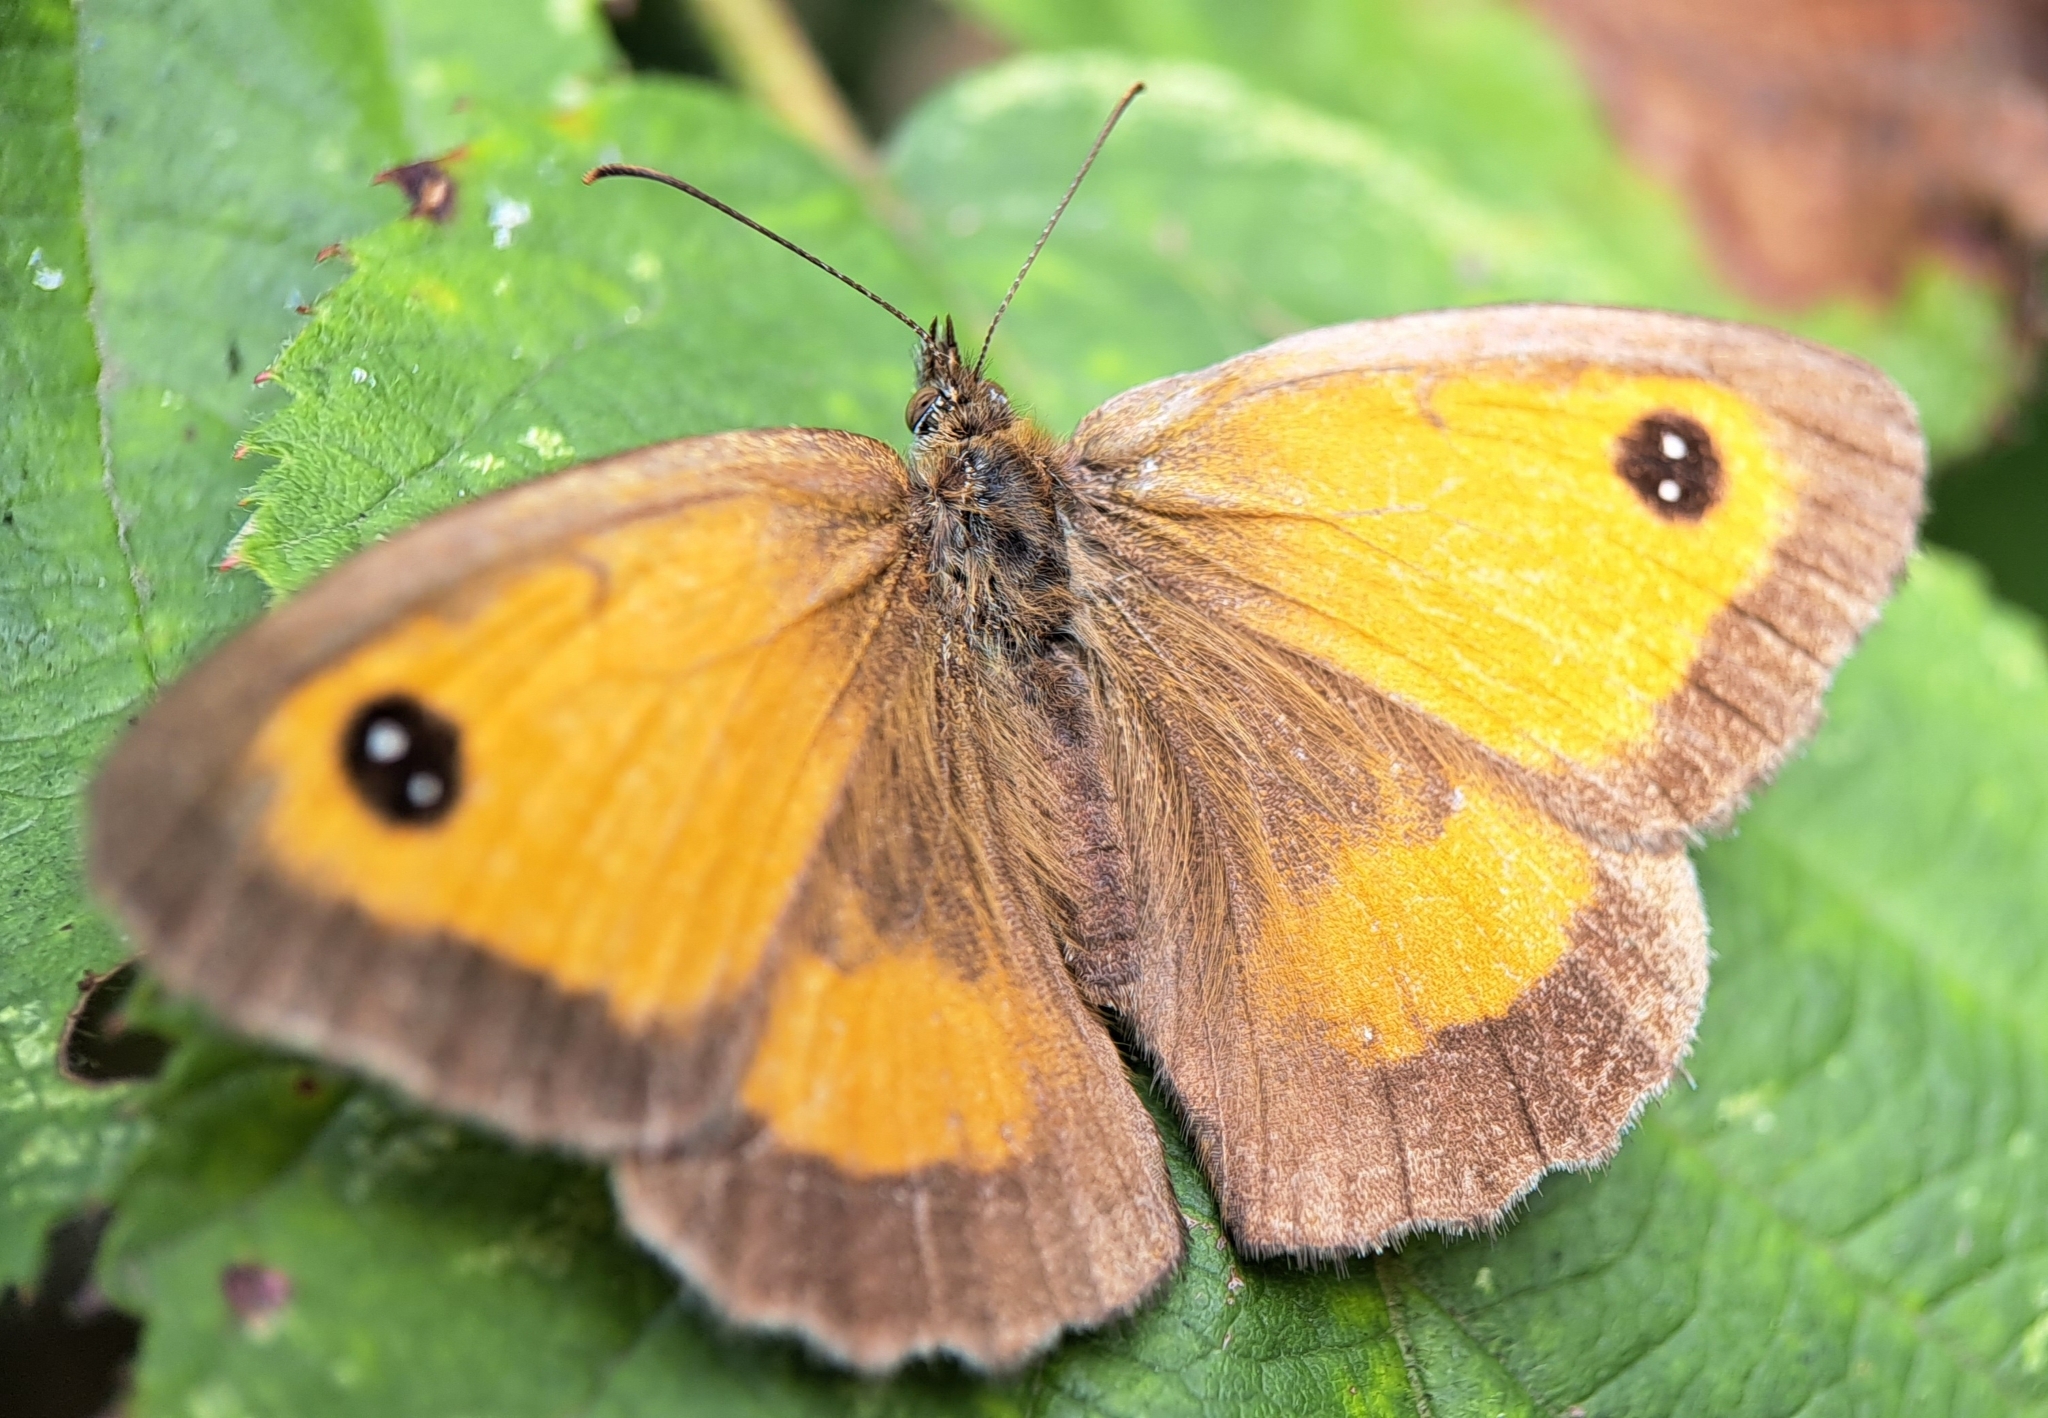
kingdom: Animalia
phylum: Arthropoda
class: Insecta
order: Lepidoptera
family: Nymphalidae
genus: Pyronia
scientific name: Pyronia tithonus
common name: Gatekeeper
